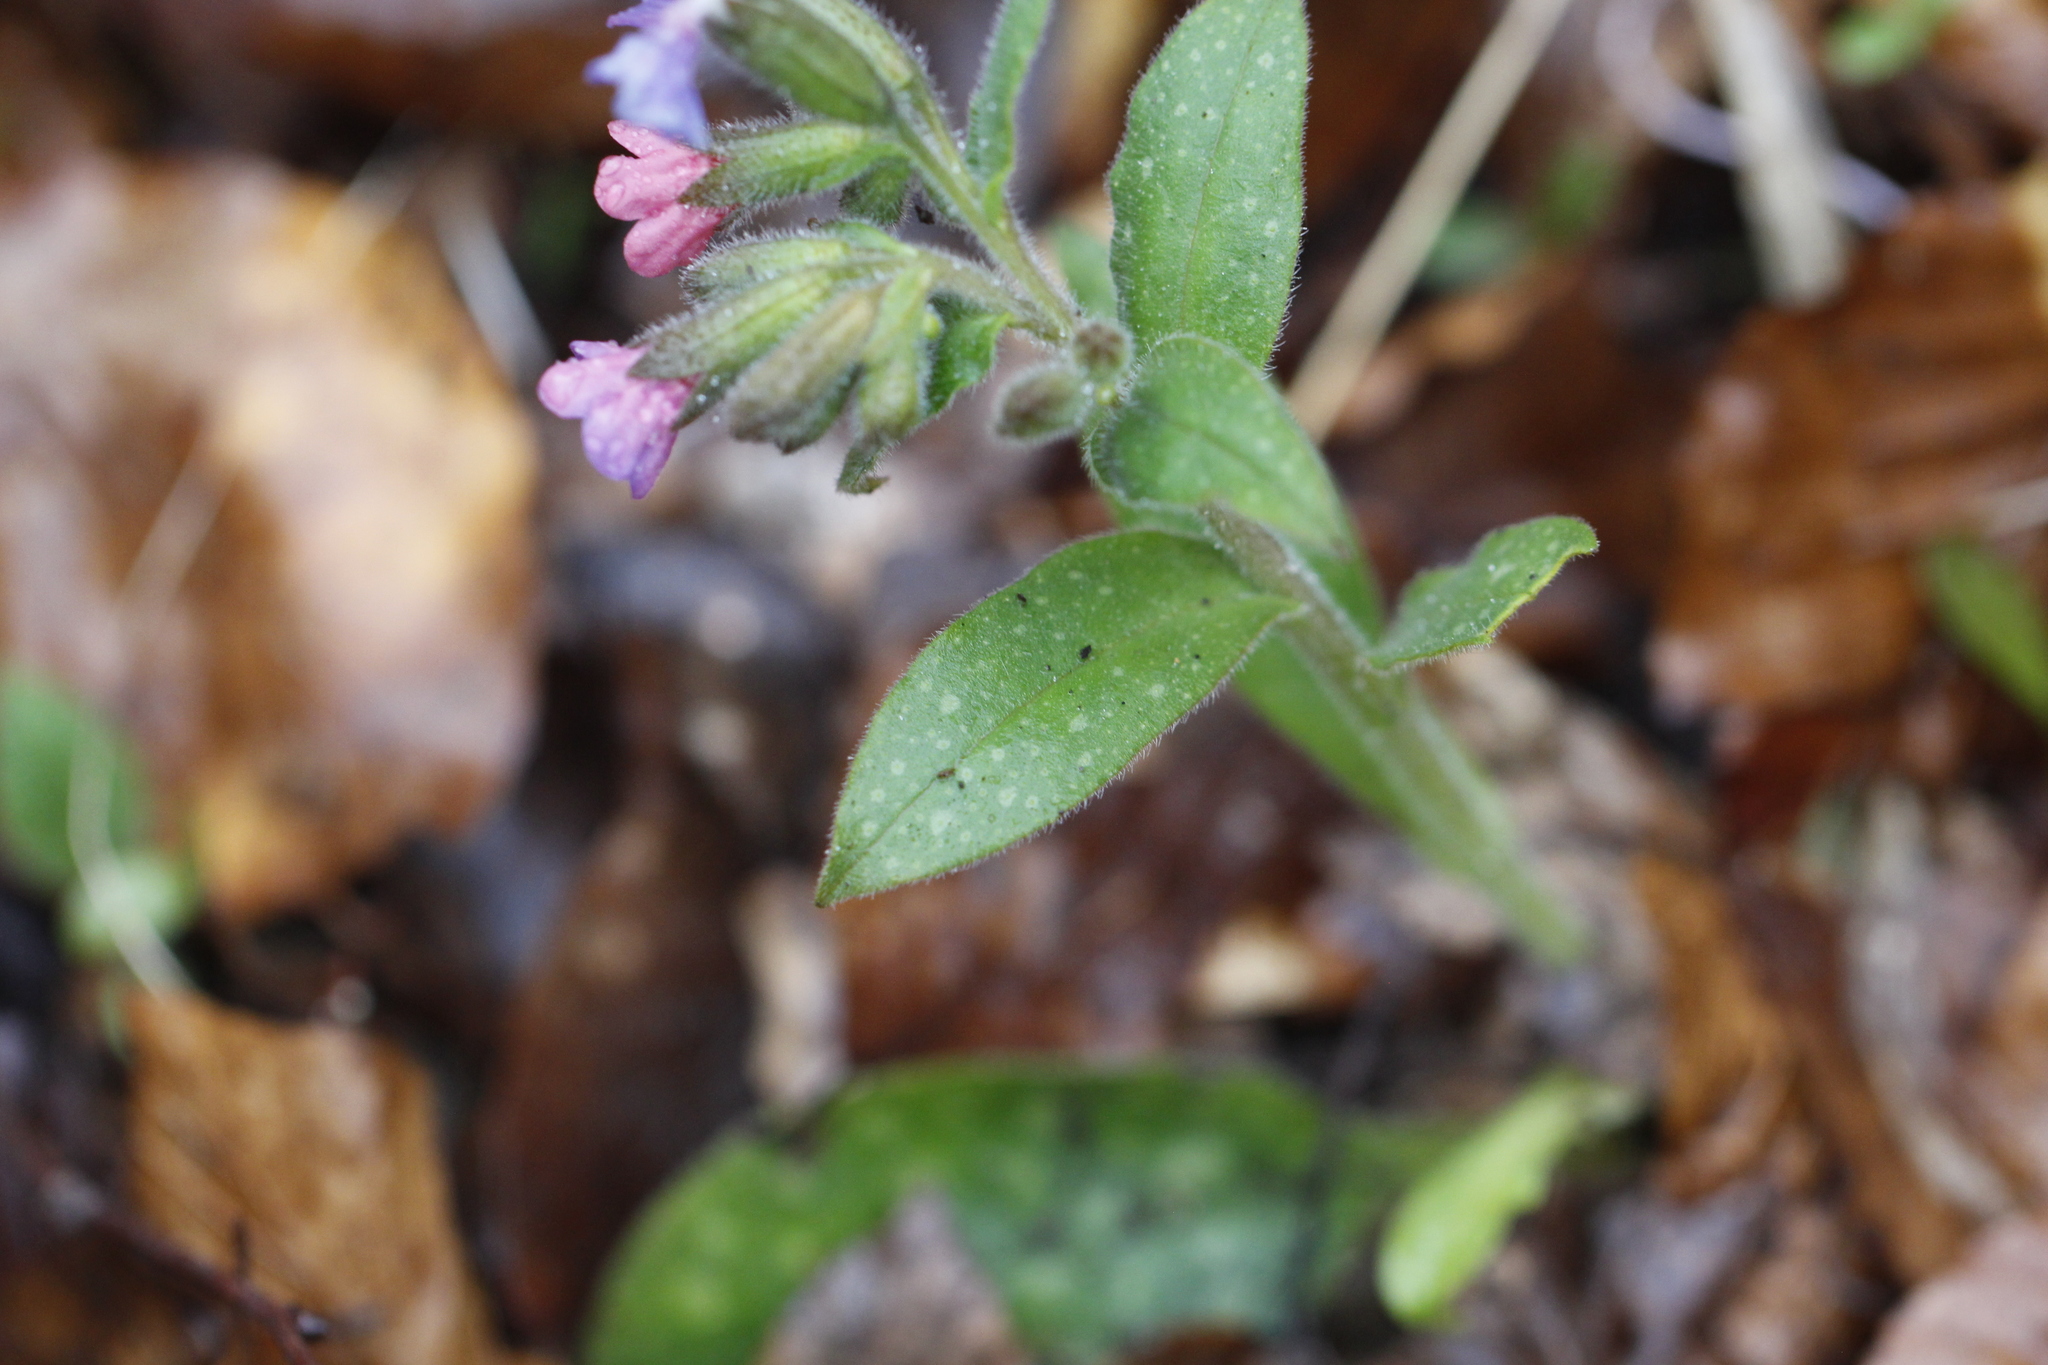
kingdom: Plantae
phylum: Tracheophyta
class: Magnoliopsida
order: Boraginales
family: Boraginaceae
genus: Pulmonaria
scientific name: Pulmonaria officinalis
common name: Lungwort
